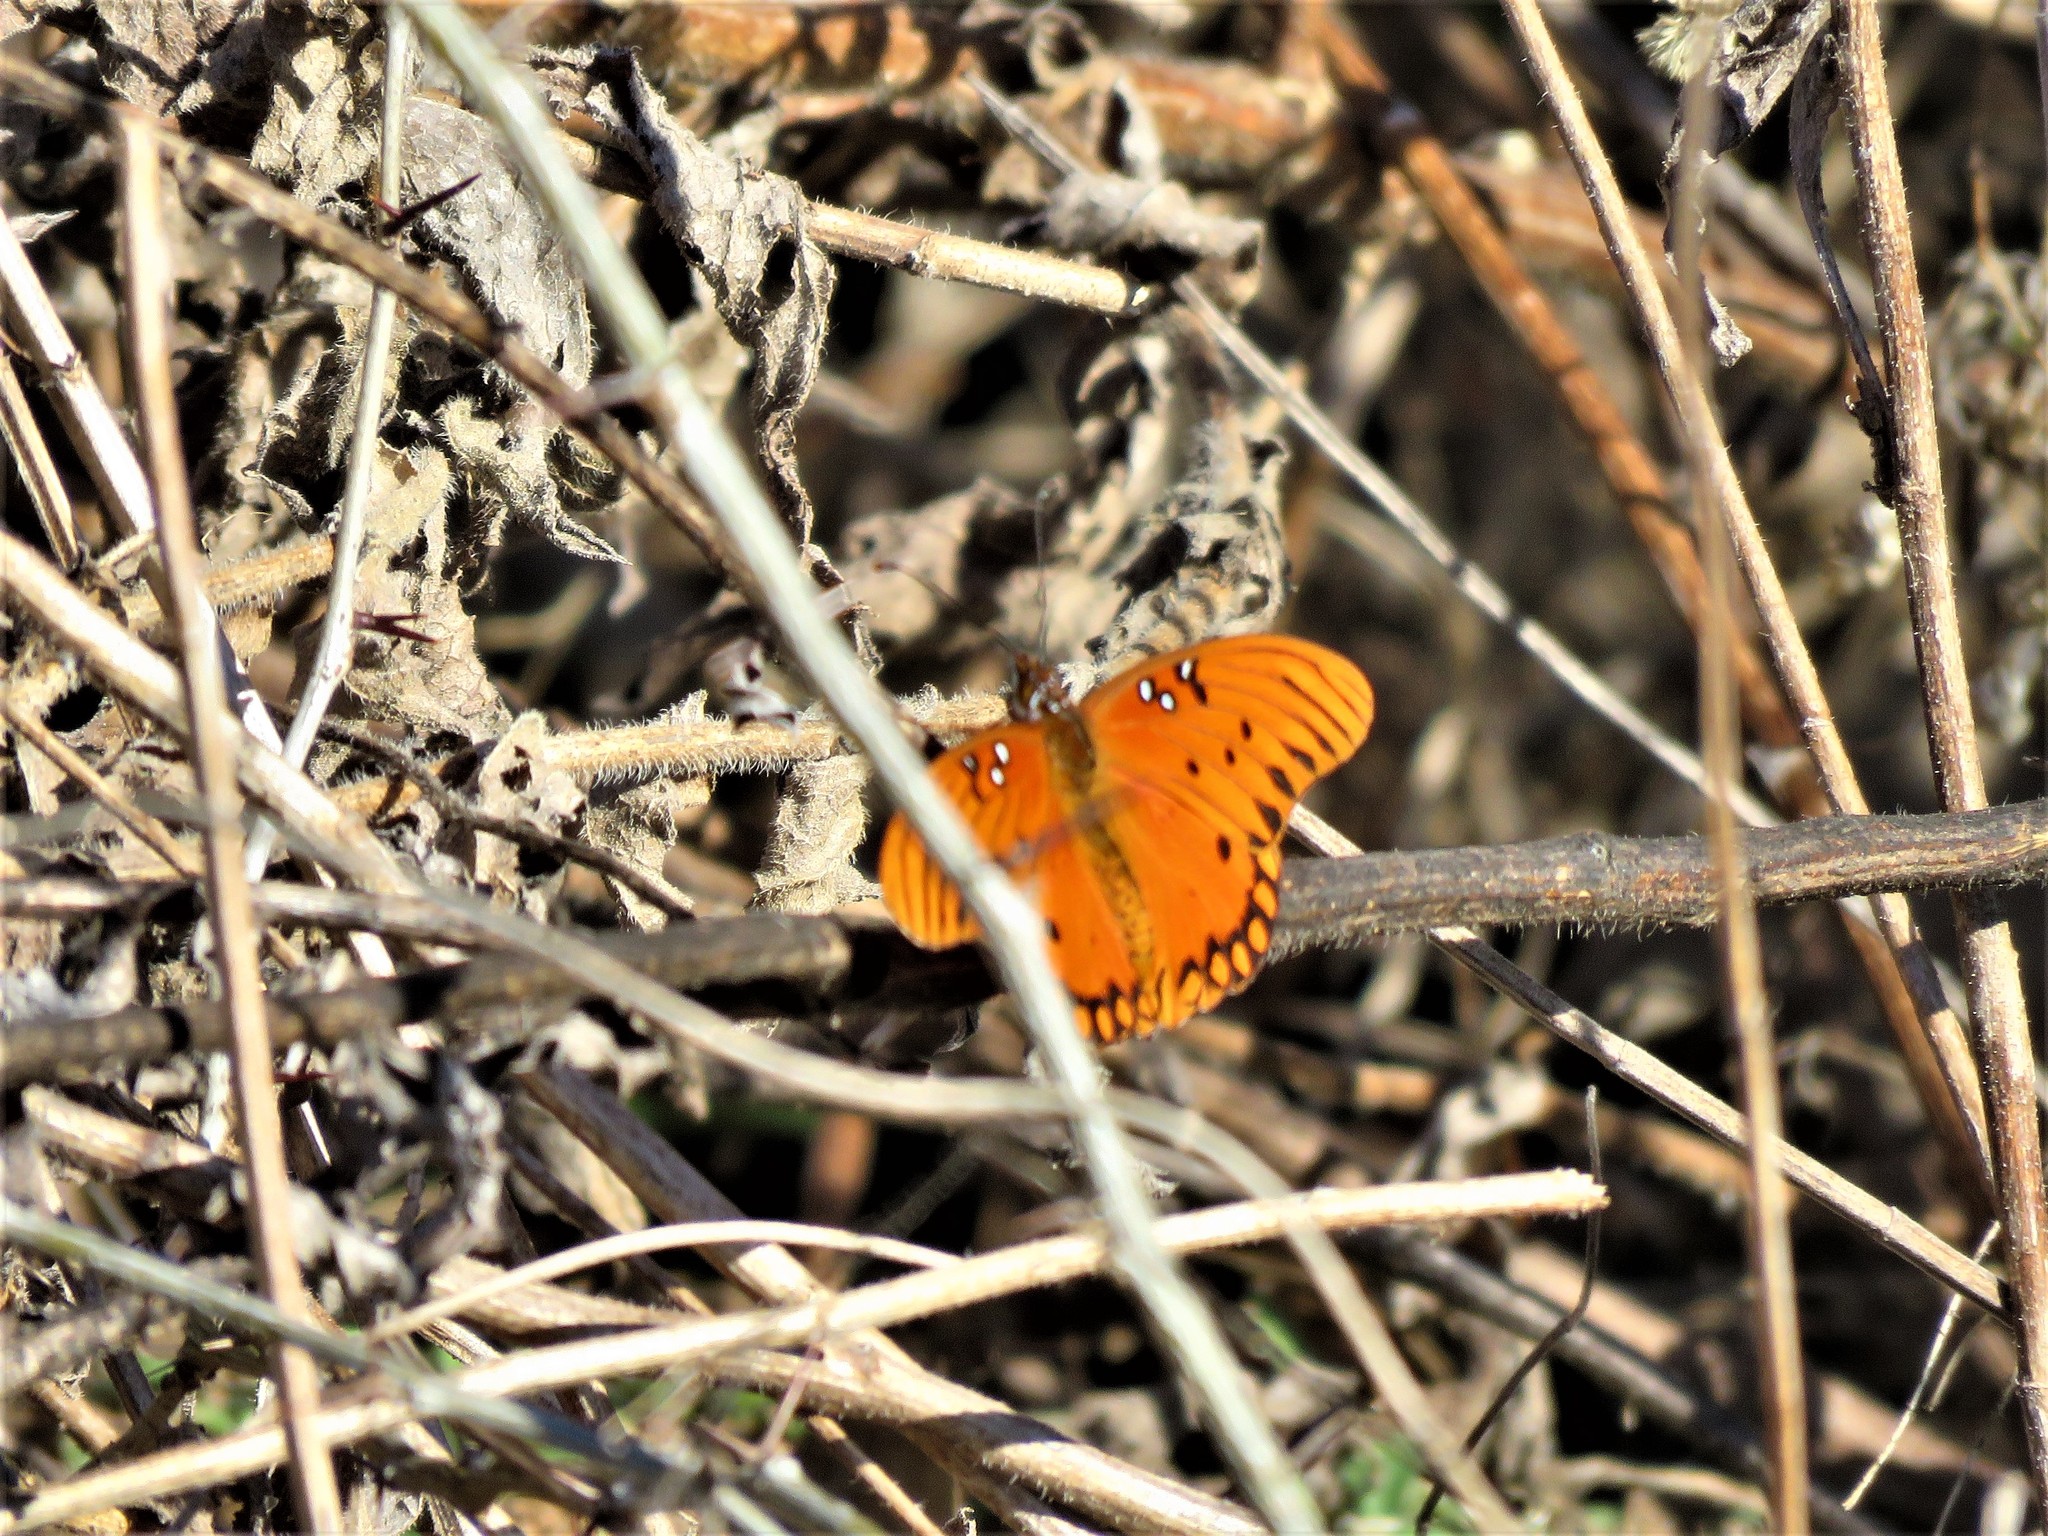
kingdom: Animalia
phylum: Arthropoda
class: Insecta
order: Lepidoptera
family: Nymphalidae
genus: Dione
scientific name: Dione vanillae
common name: Gulf fritillary
